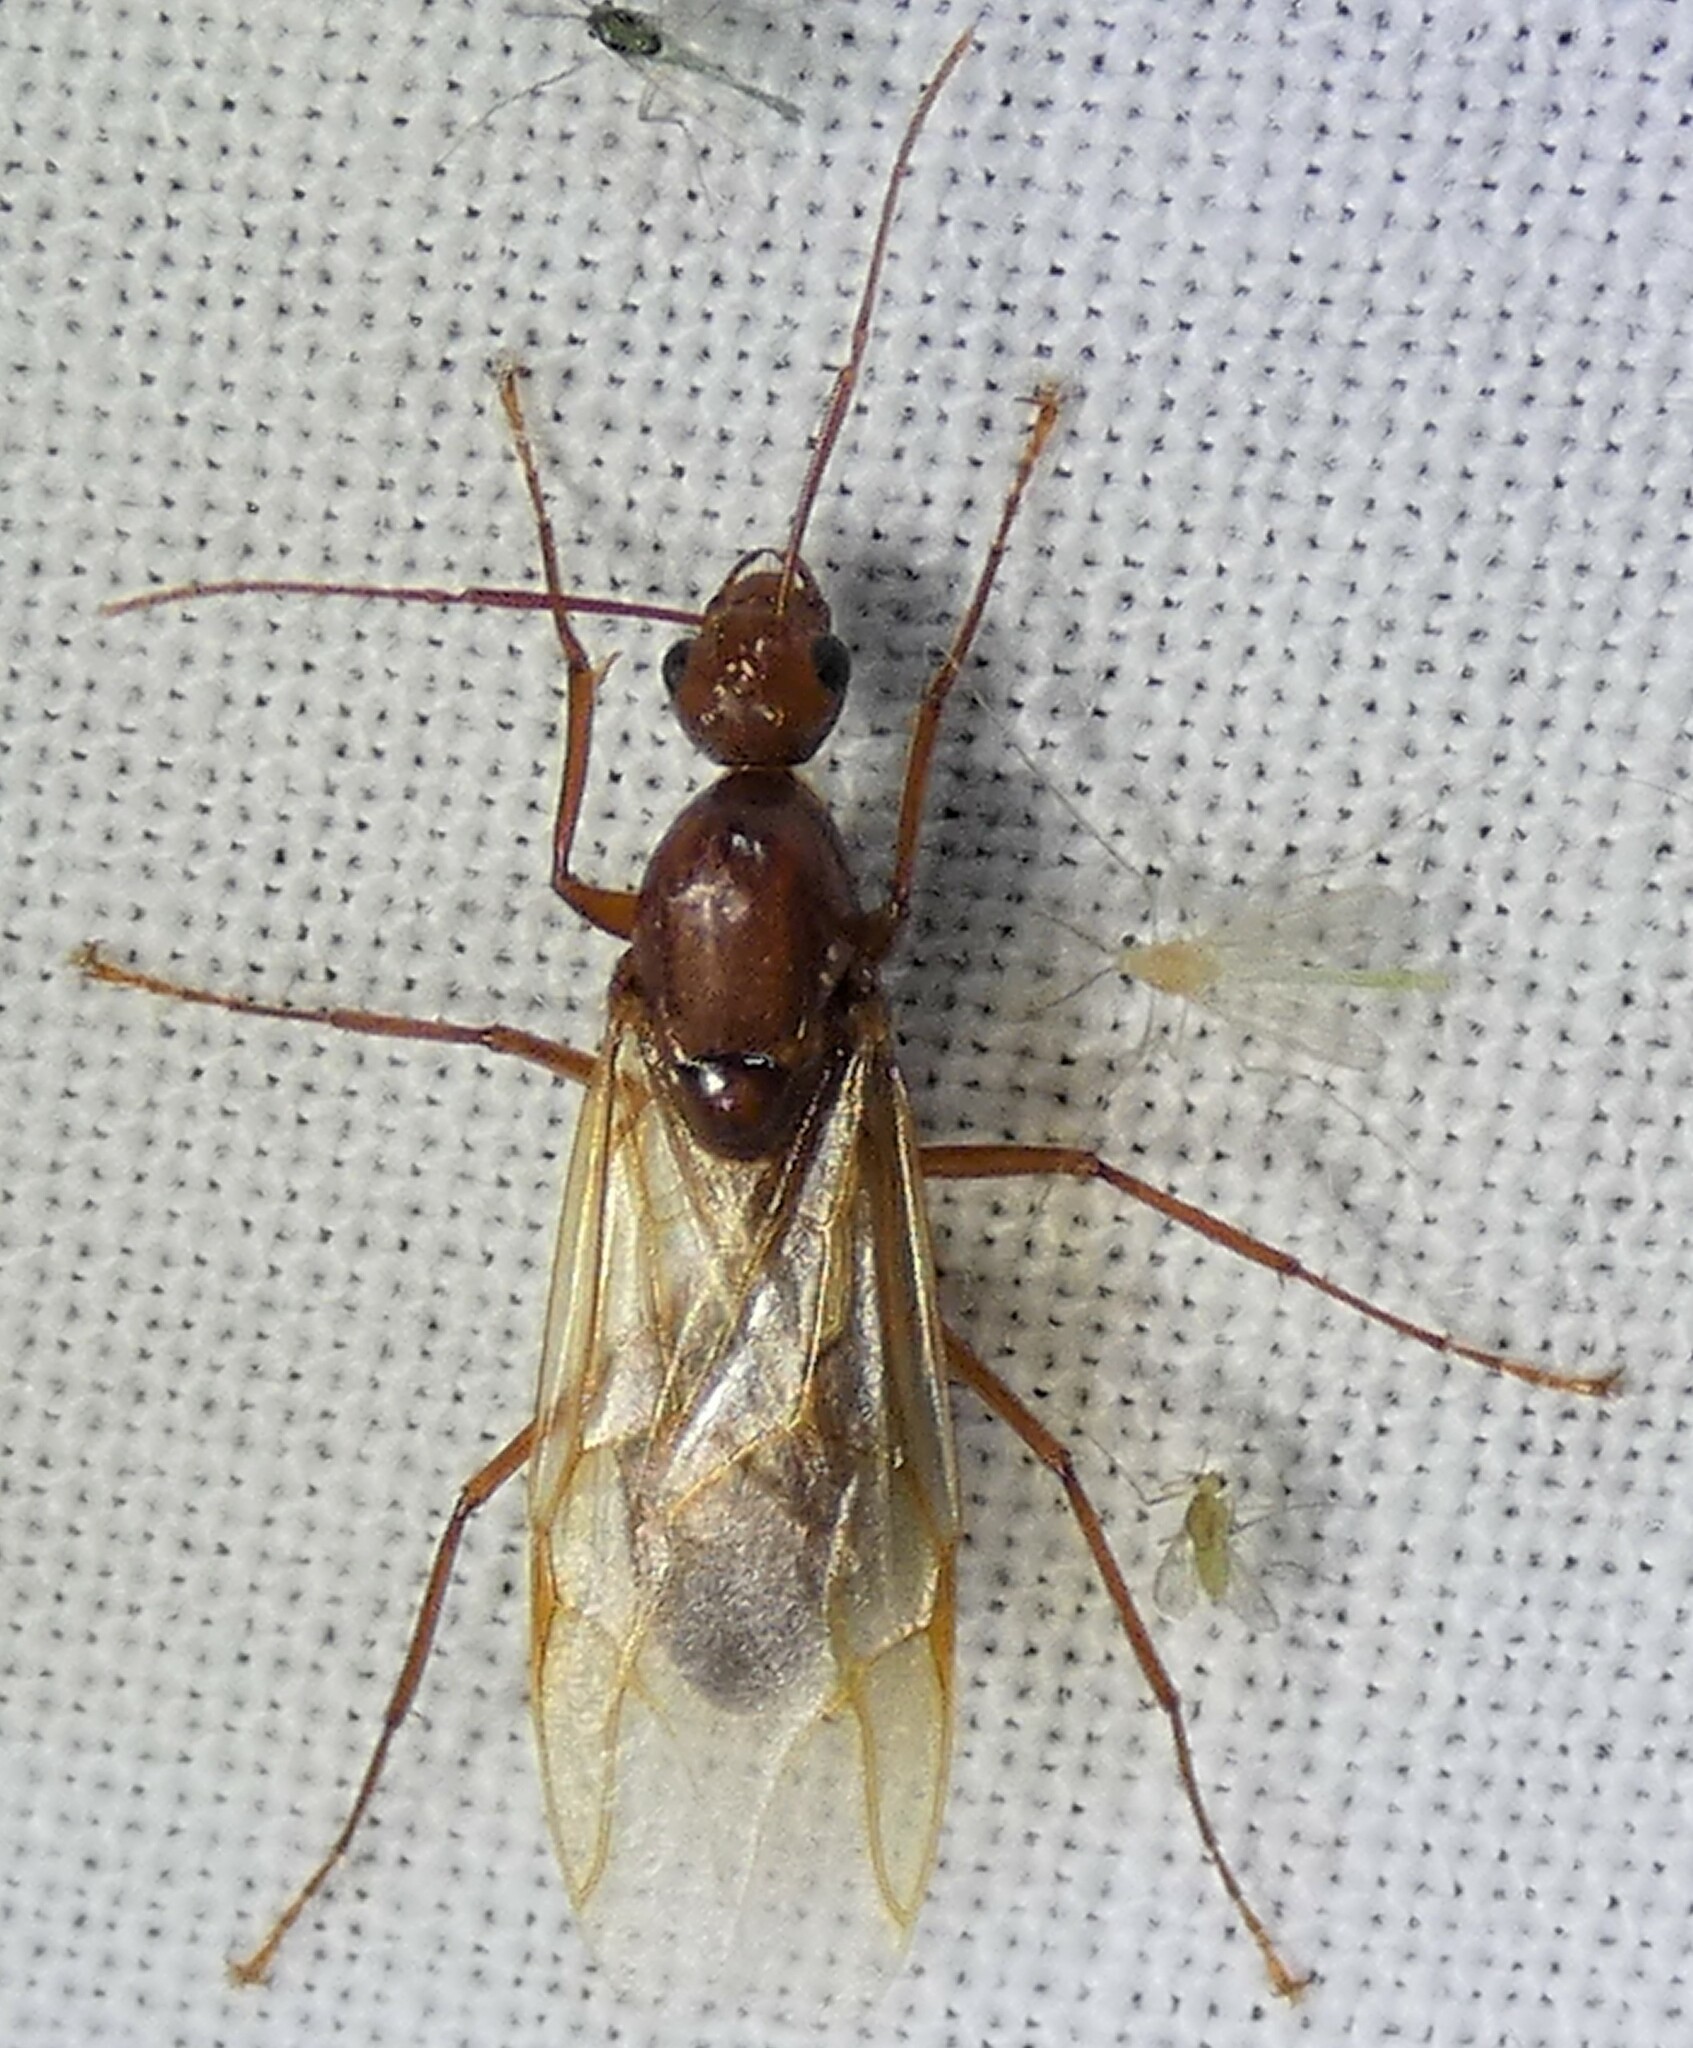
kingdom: Animalia
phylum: Arthropoda
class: Insecta
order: Hymenoptera
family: Formicidae
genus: Camponotus
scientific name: Camponotus castaneus
